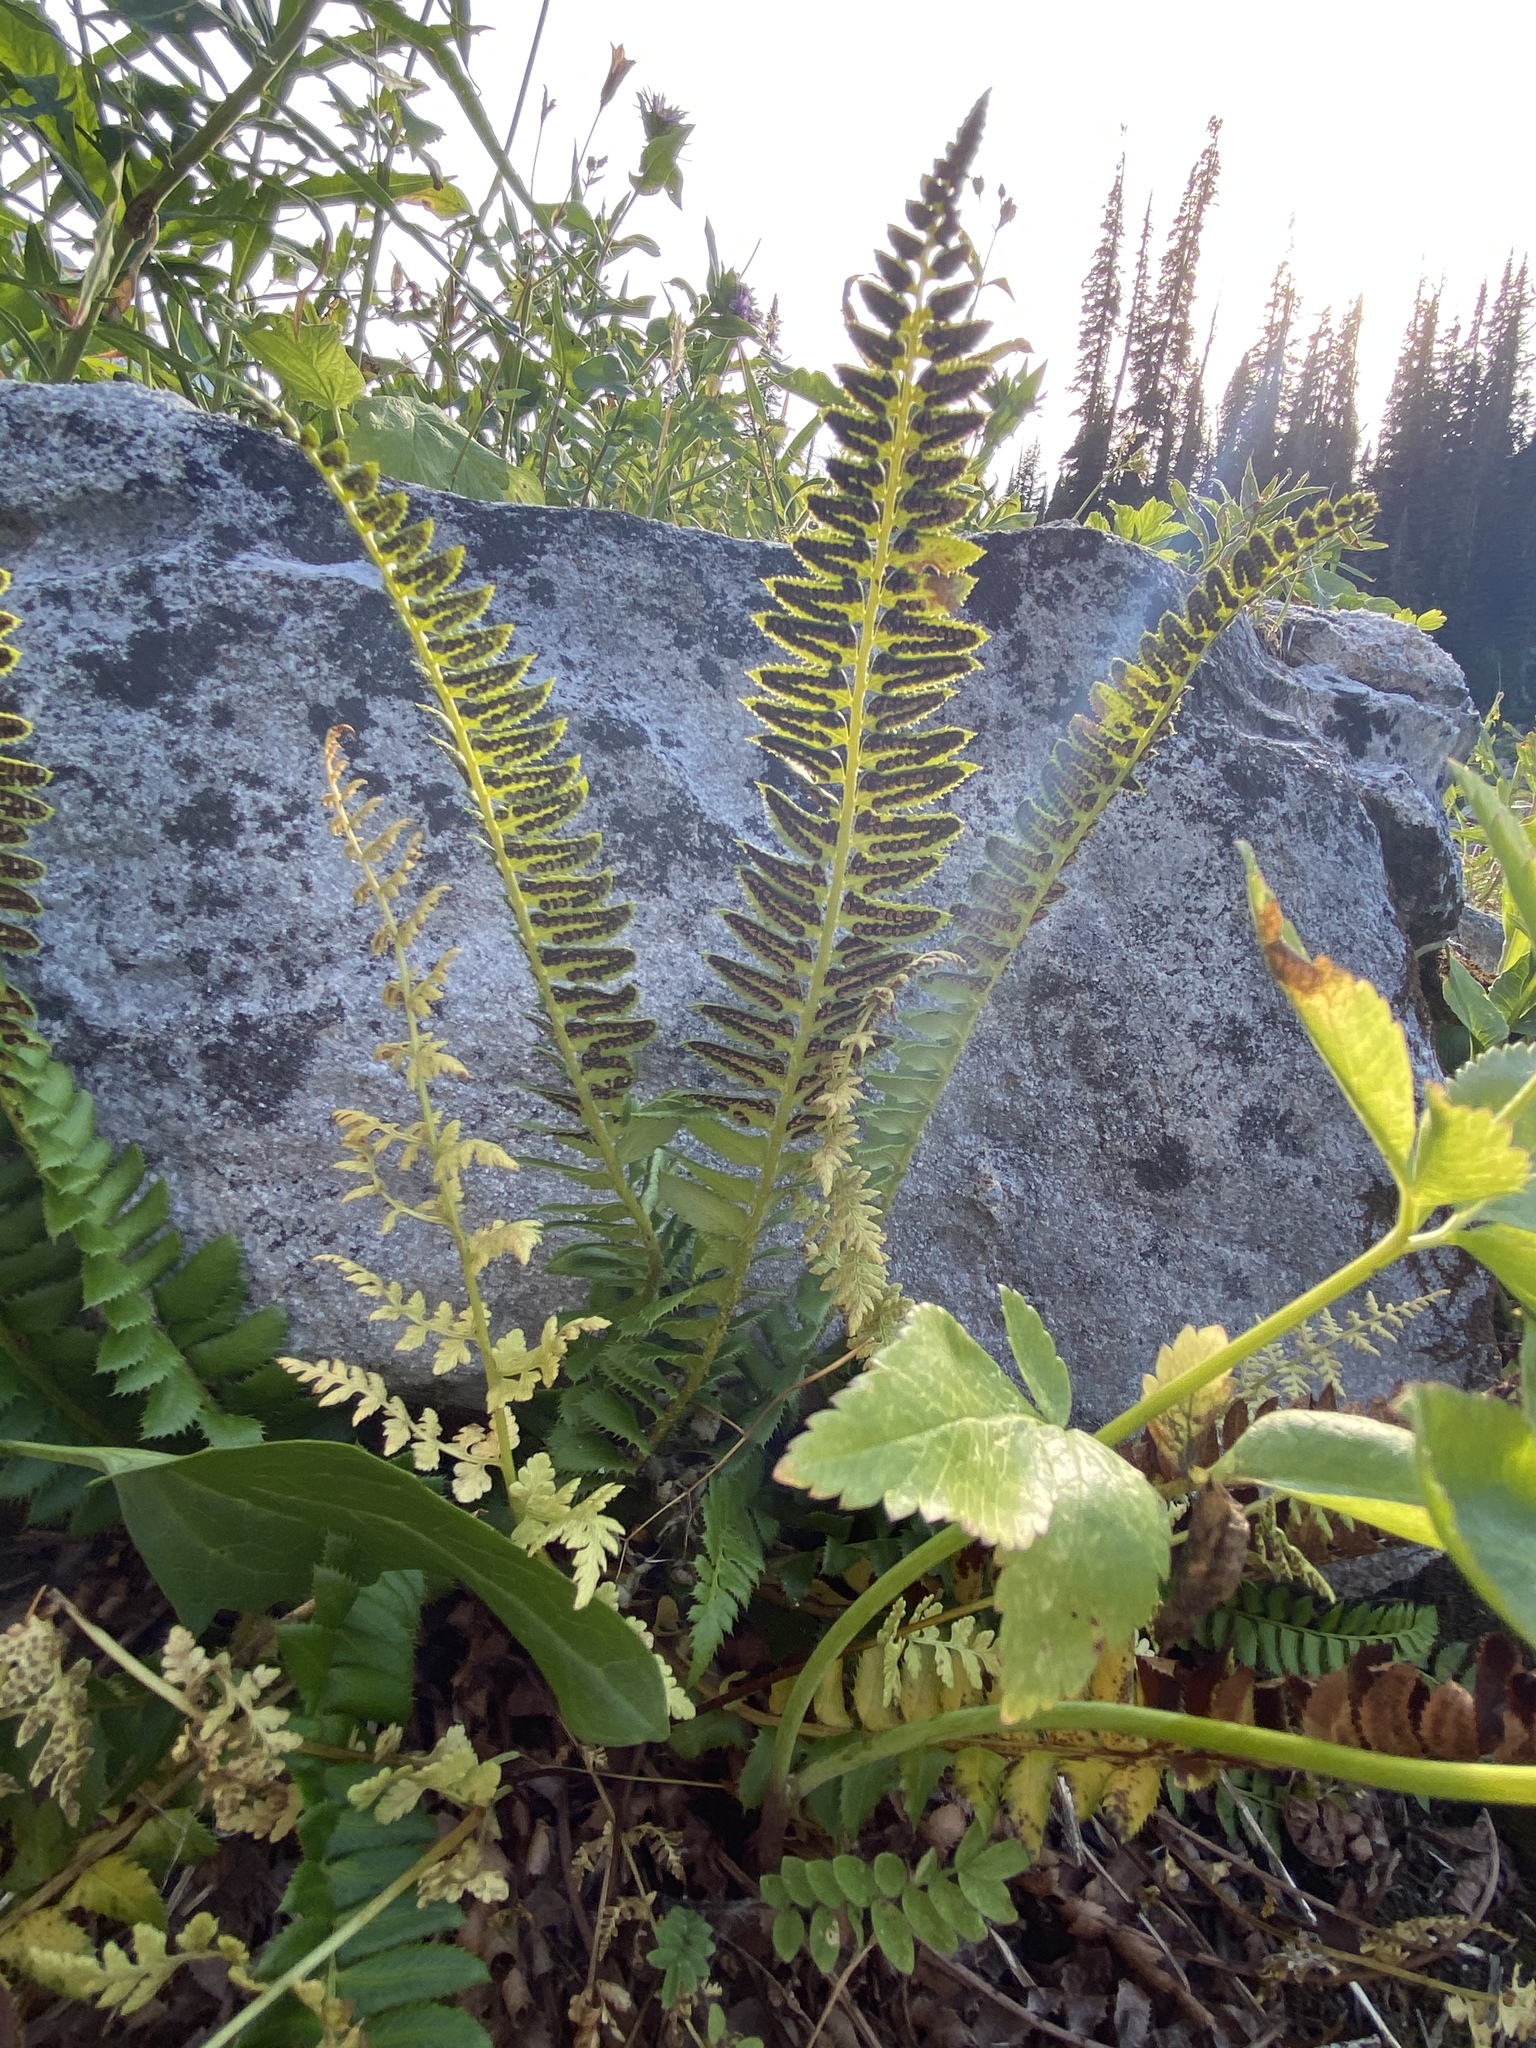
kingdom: Plantae
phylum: Tracheophyta
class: Polypodiopsida
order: Polypodiales
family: Dryopteridaceae
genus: Polystichum
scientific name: Polystichum lonchitis
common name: Holly fern
